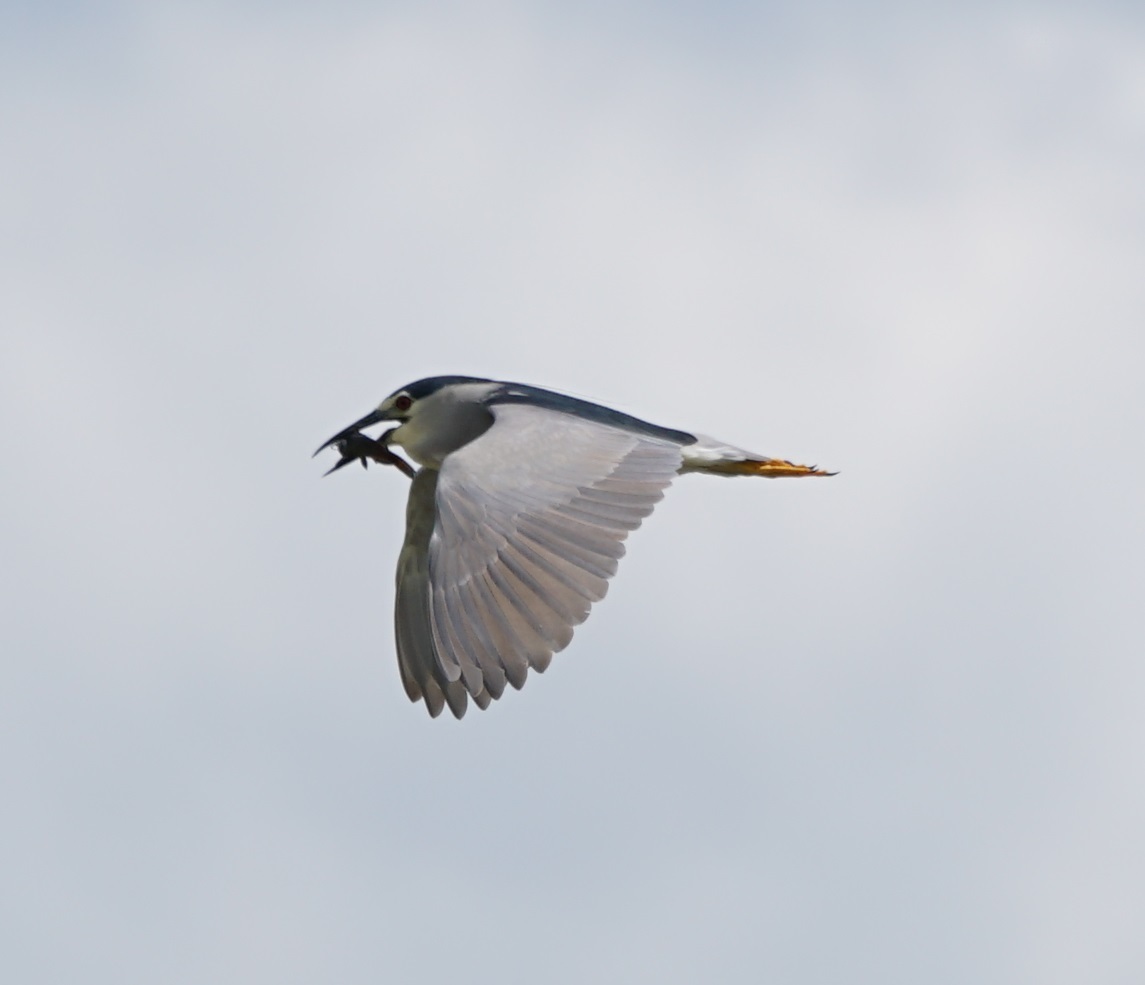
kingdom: Animalia
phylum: Chordata
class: Aves
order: Pelecaniformes
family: Ardeidae
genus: Nycticorax
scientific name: Nycticorax nycticorax
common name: Black-crowned night heron
